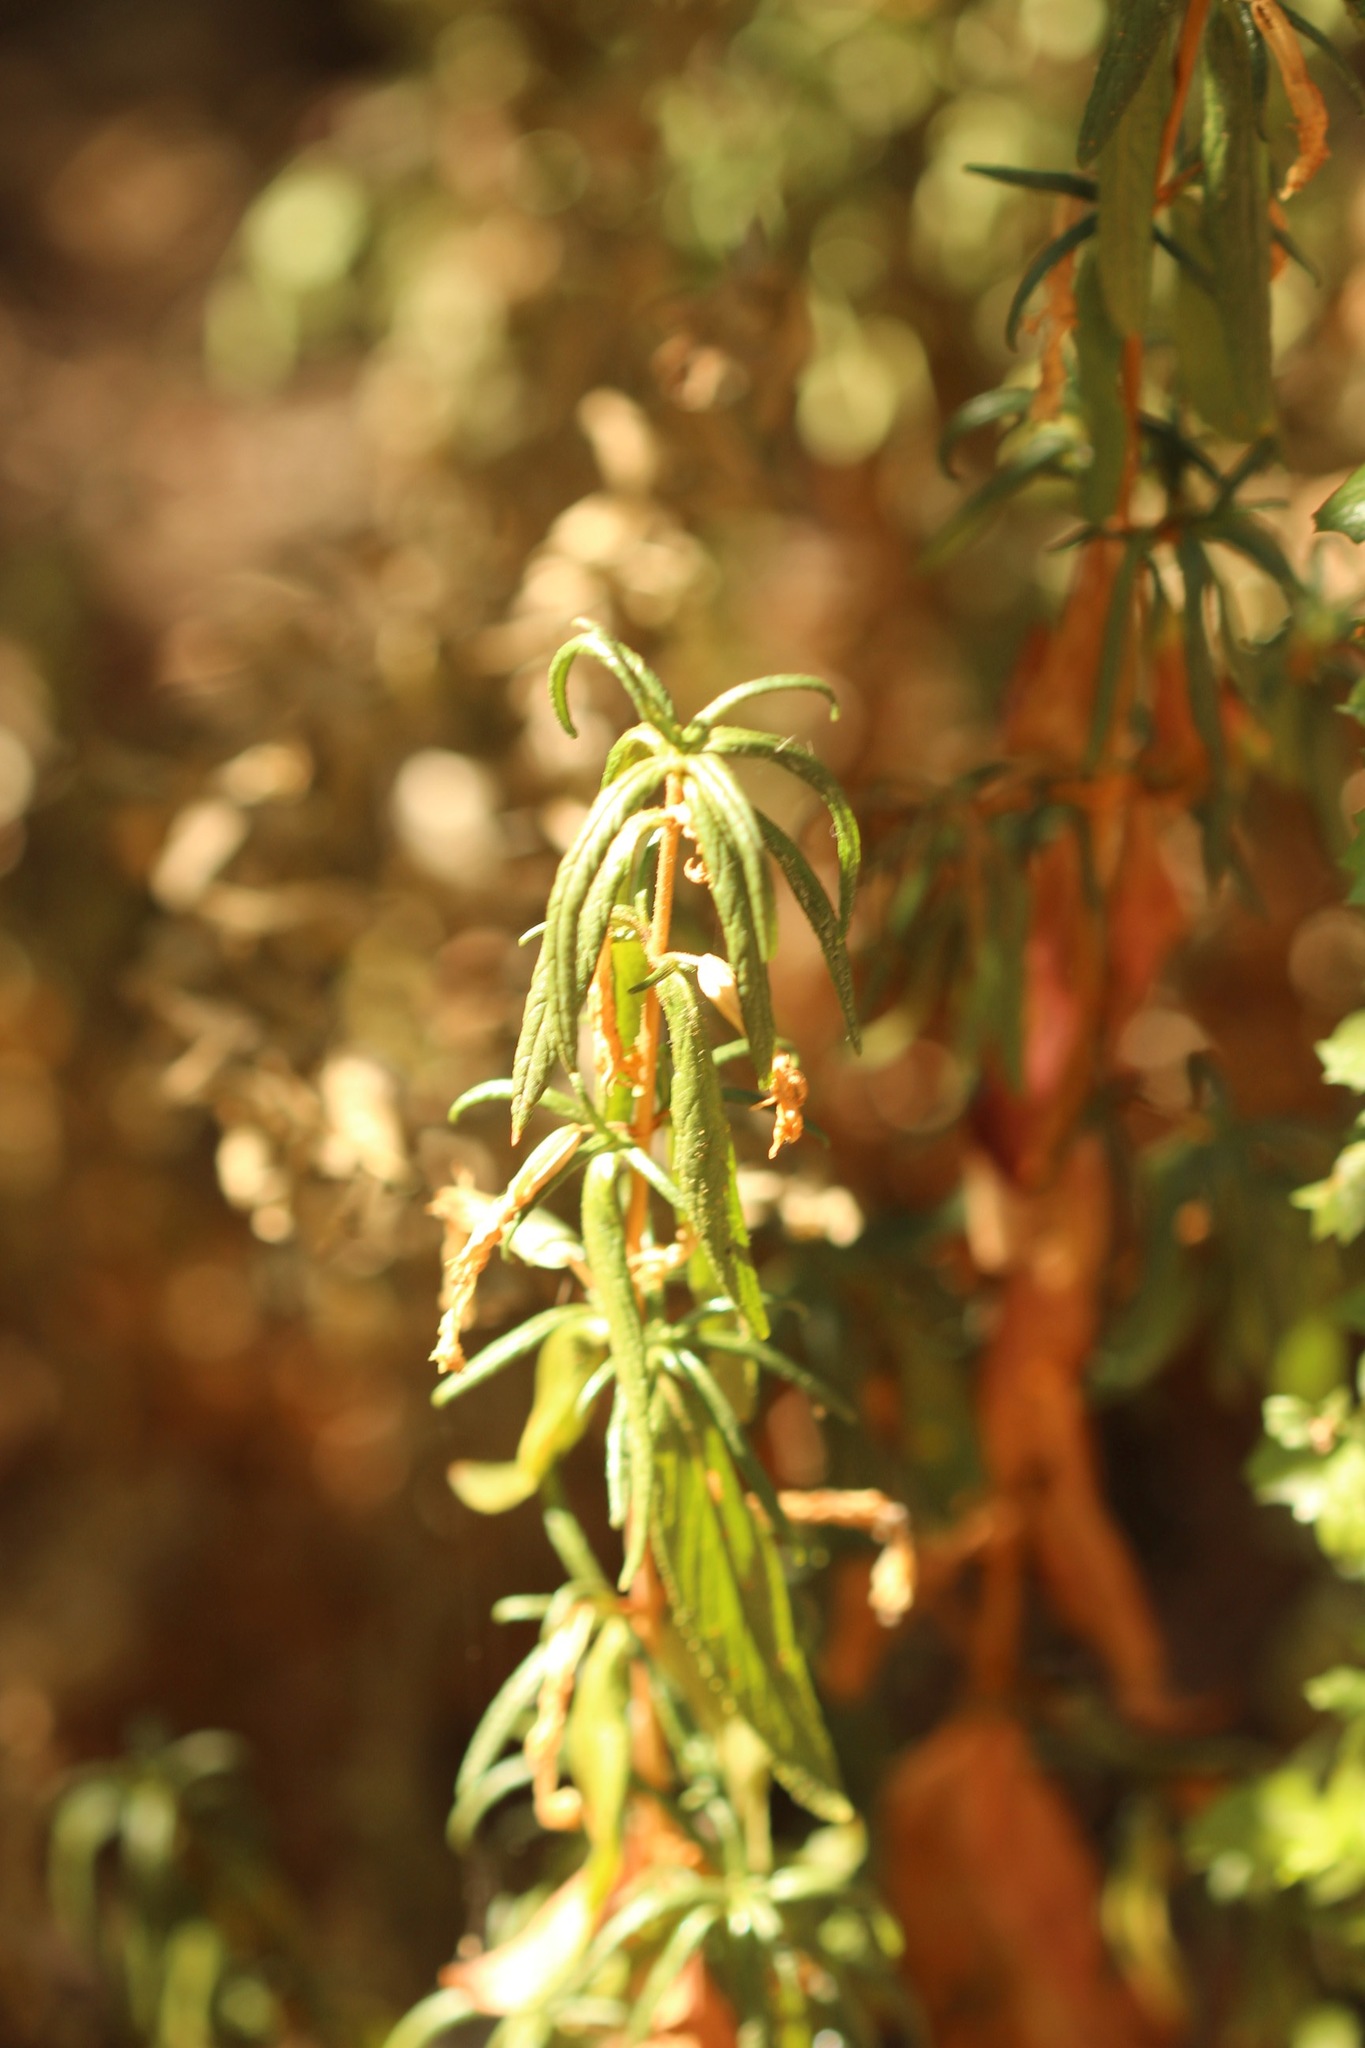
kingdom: Plantae
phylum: Tracheophyta
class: Magnoliopsida
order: Lamiales
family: Phrymaceae
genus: Diplacus
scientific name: Diplacus aurantiacus
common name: Bush monkey-flower
